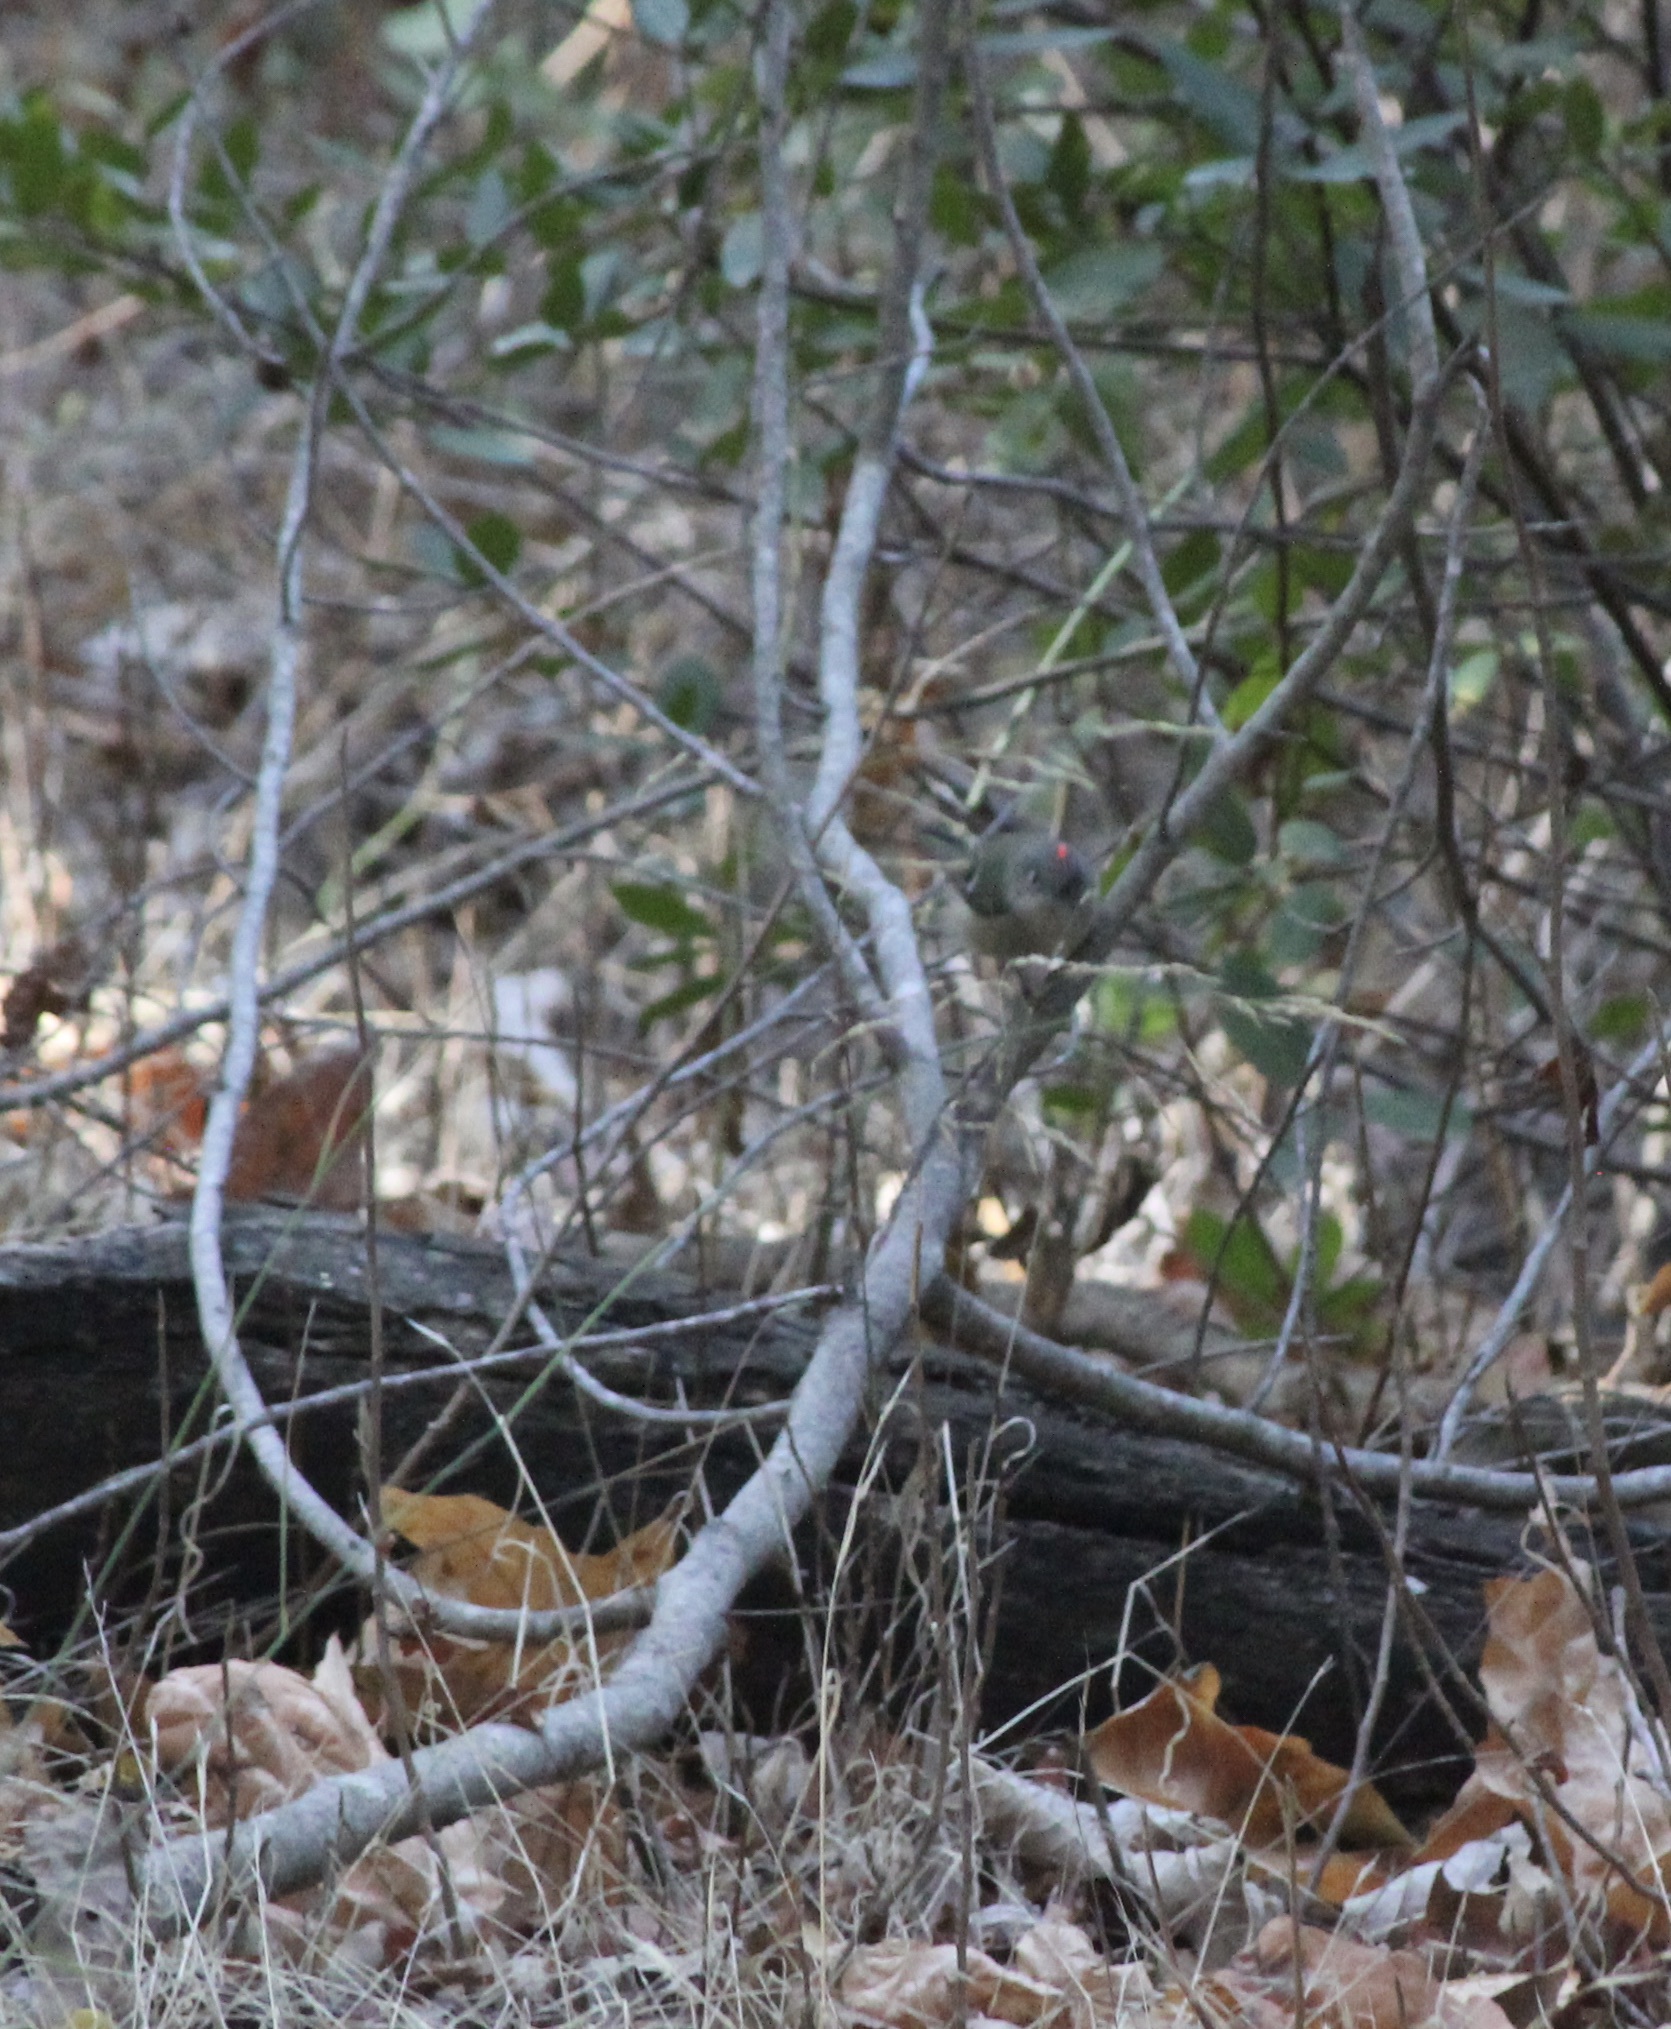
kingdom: Animalia
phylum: Chordata
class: Aves
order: Passeriformes
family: Regulidae
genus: Regulus
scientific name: Regulus calendula
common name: Ruby-crowned kinglet
